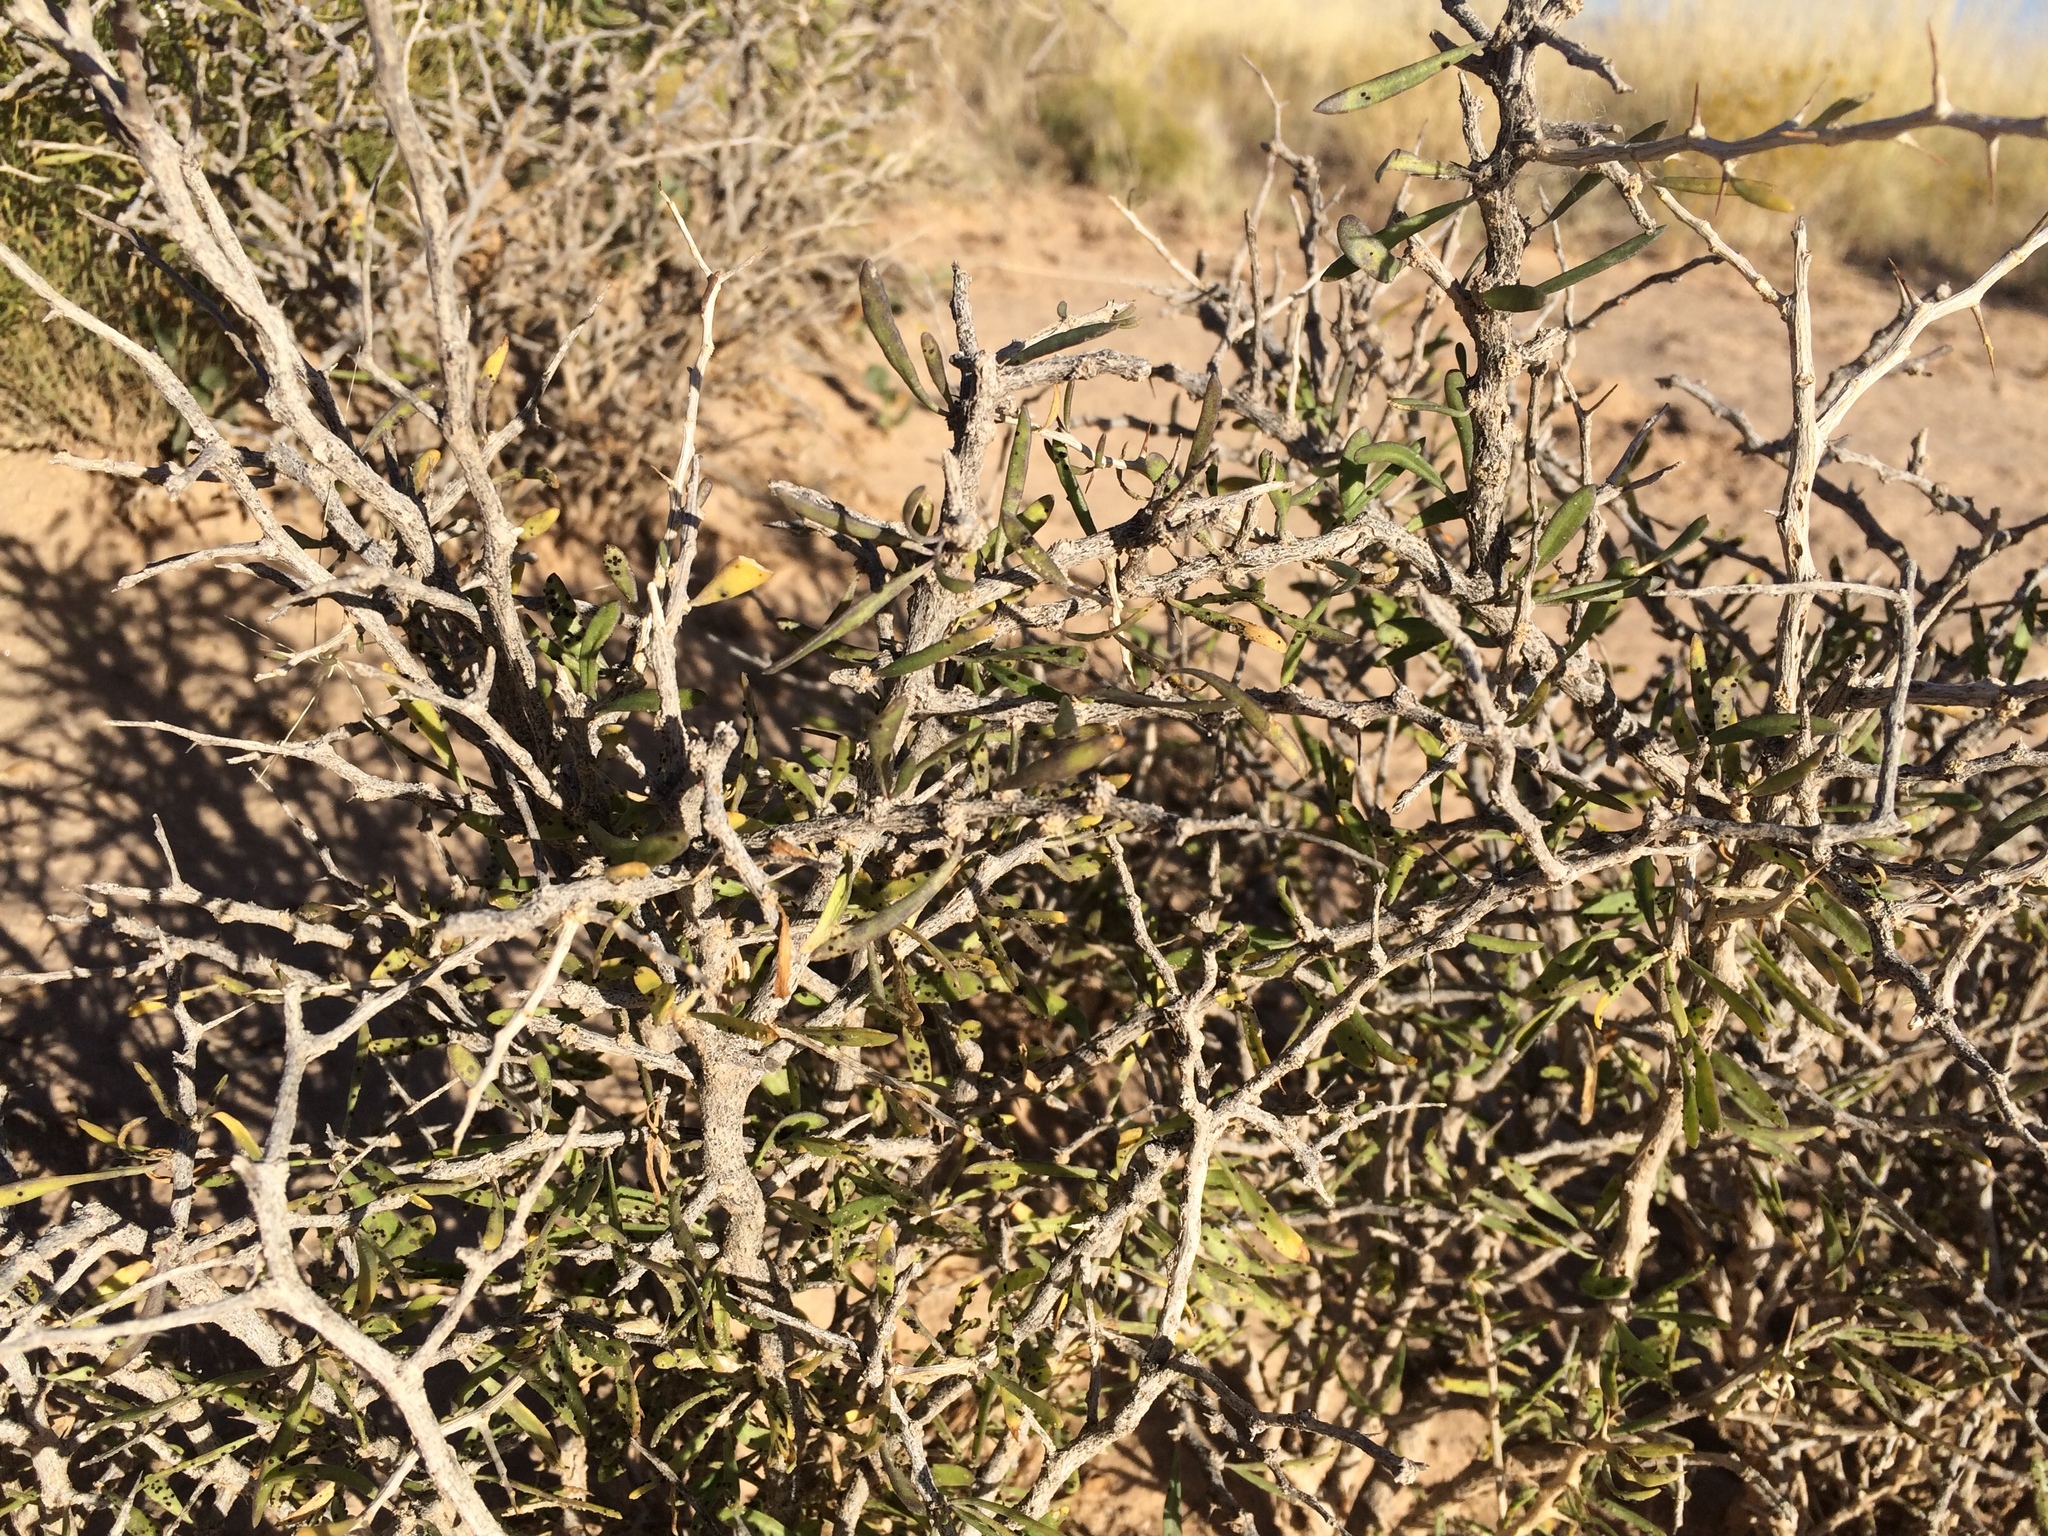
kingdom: Plantae
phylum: Tracheophyta
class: Magnoliopsida
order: Solanales
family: Solanaceae
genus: Lycium
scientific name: Lycium berlandieri
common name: Berlandier wolfberry
